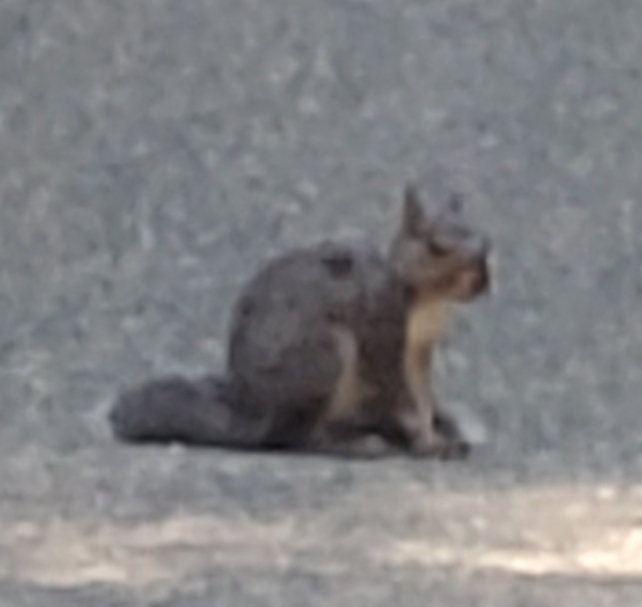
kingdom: Animalia
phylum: Chordata
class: Mammalia
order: Rodentia
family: Sciuridae
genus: Sciurus
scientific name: Sciurus griseus
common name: Western gray squirrel
